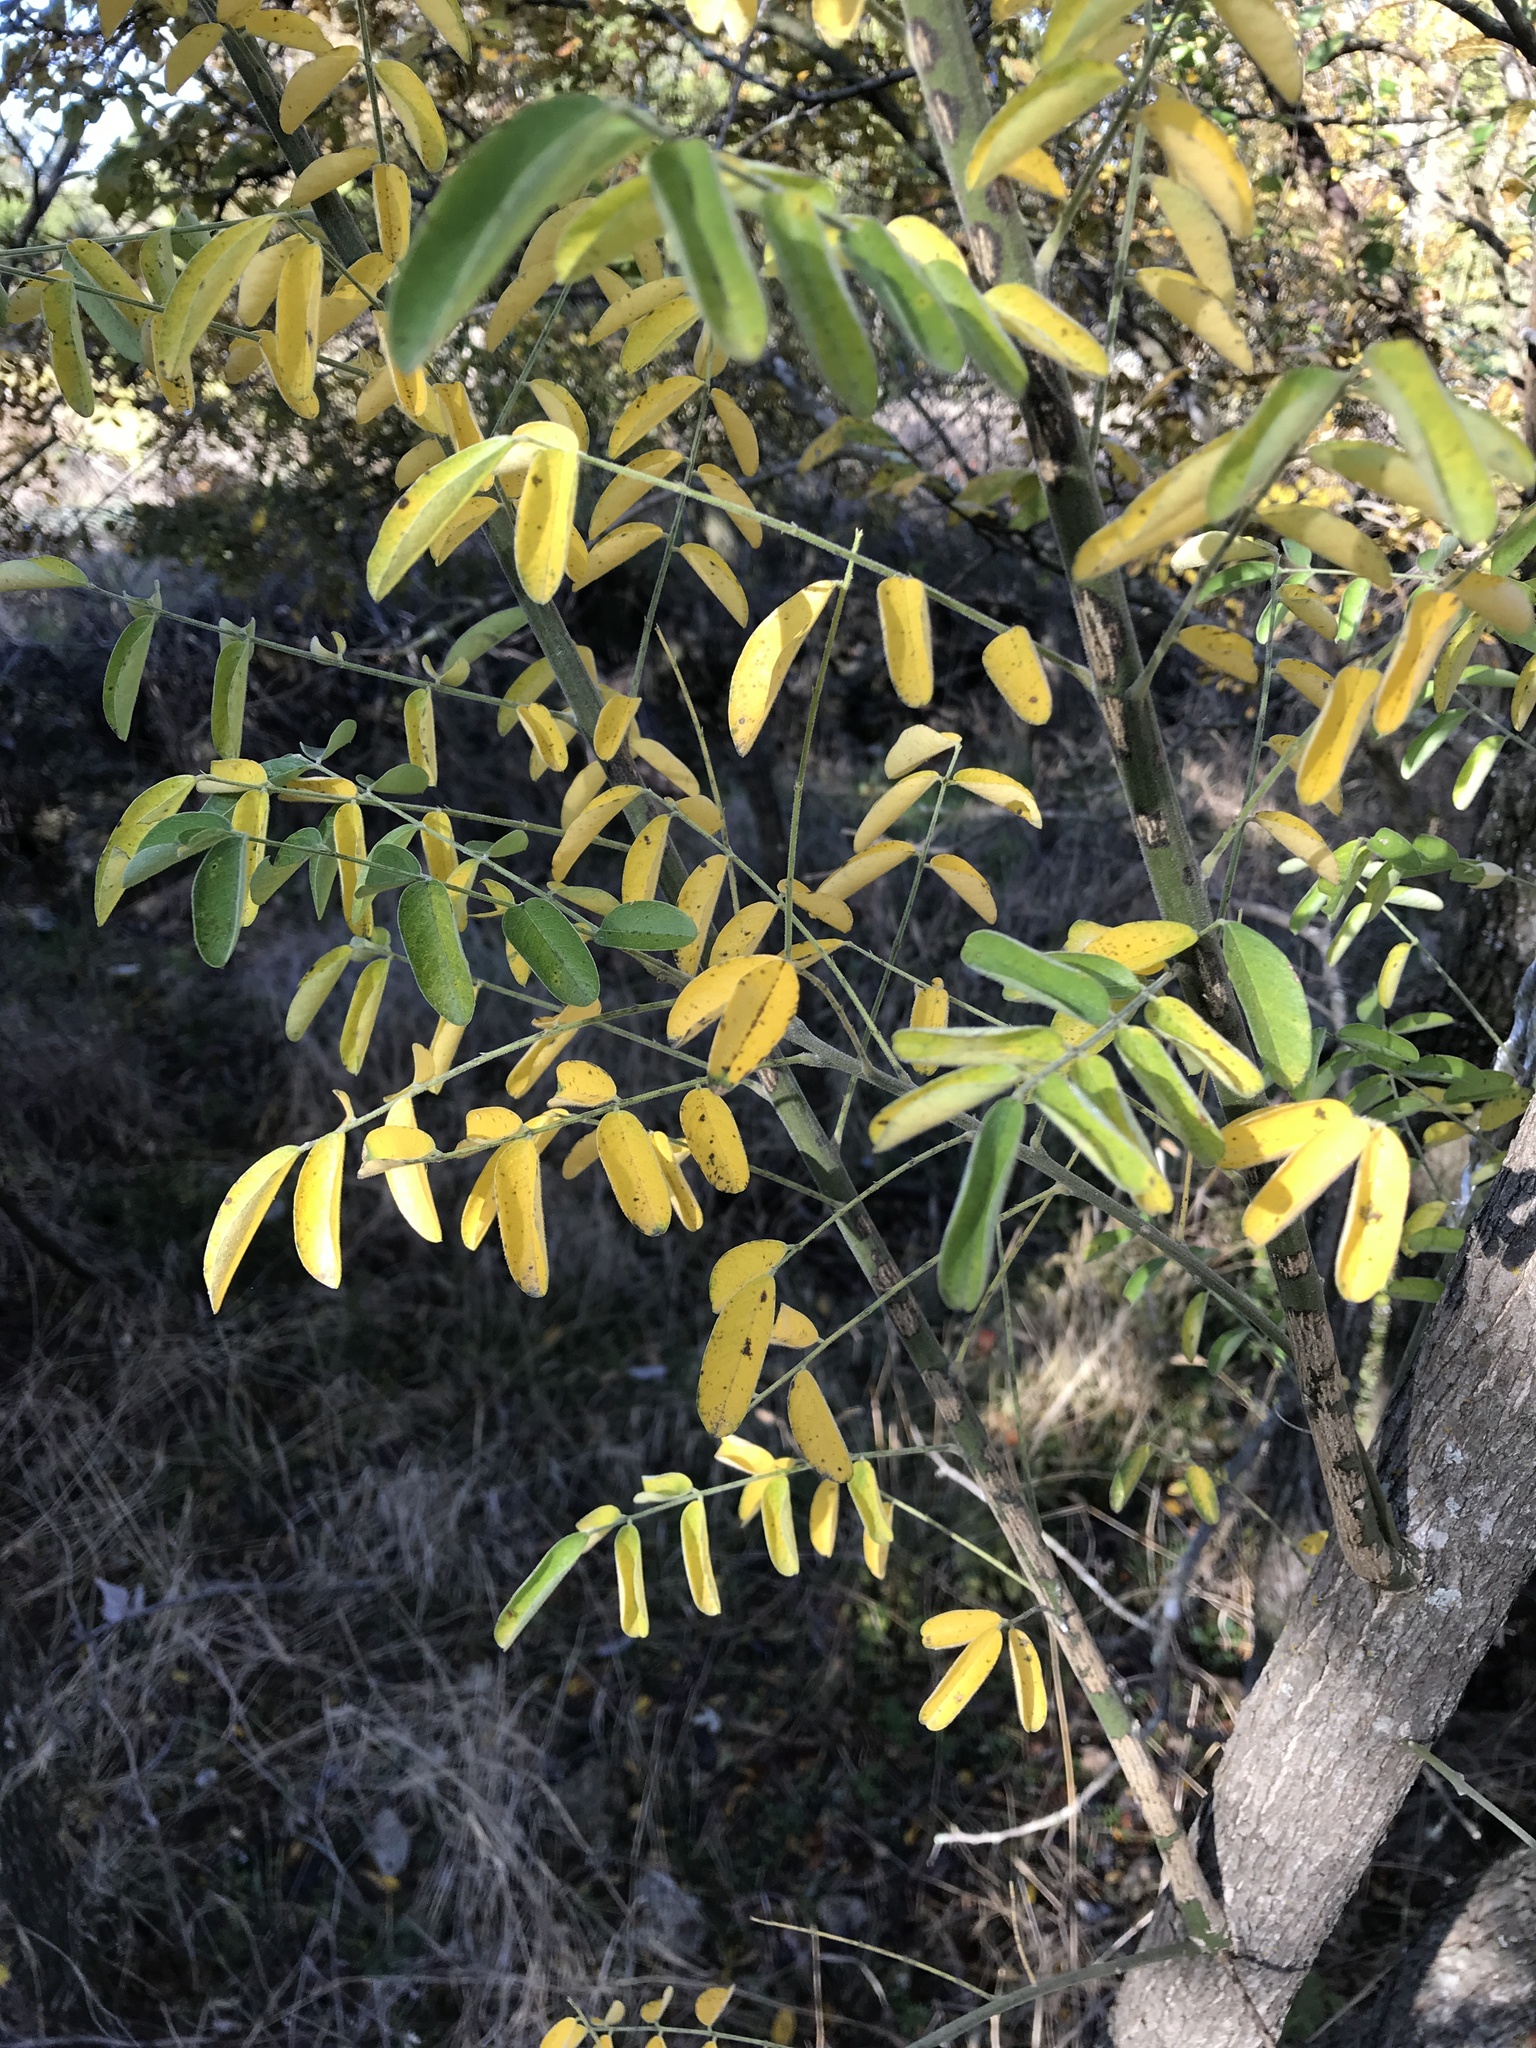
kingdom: Plantae
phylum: Tracheophyta
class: Magnoliopsida
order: Fabales
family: Fabaceae
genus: Styphnolobium
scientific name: Styphnolobium affine
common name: Texas sophora
